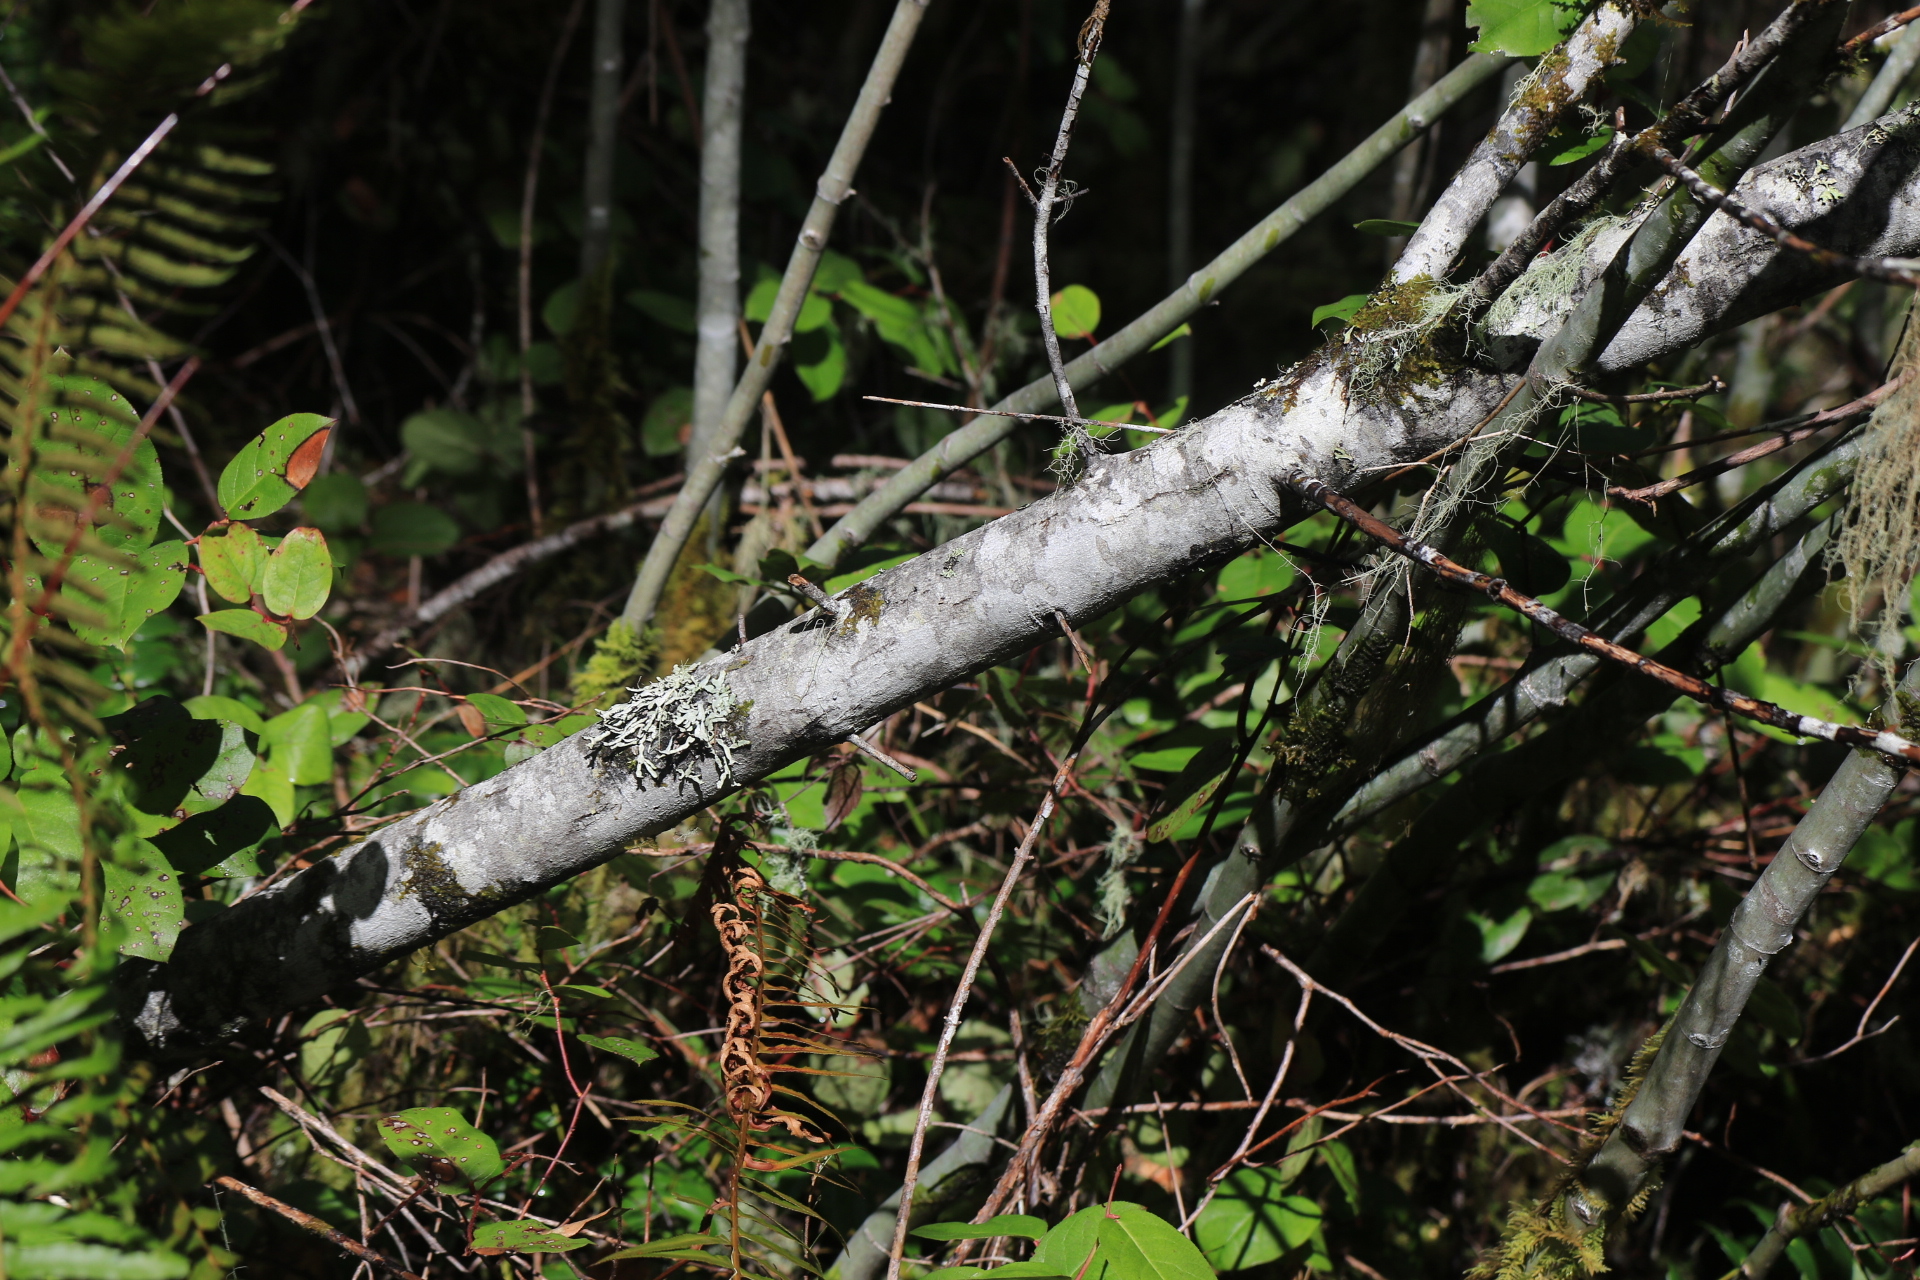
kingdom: Plantae
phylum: Tracheophyta
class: Magnoliopsida
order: Rosales
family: Rhamnaceae
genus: Ceanothus
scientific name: Ceanothus
